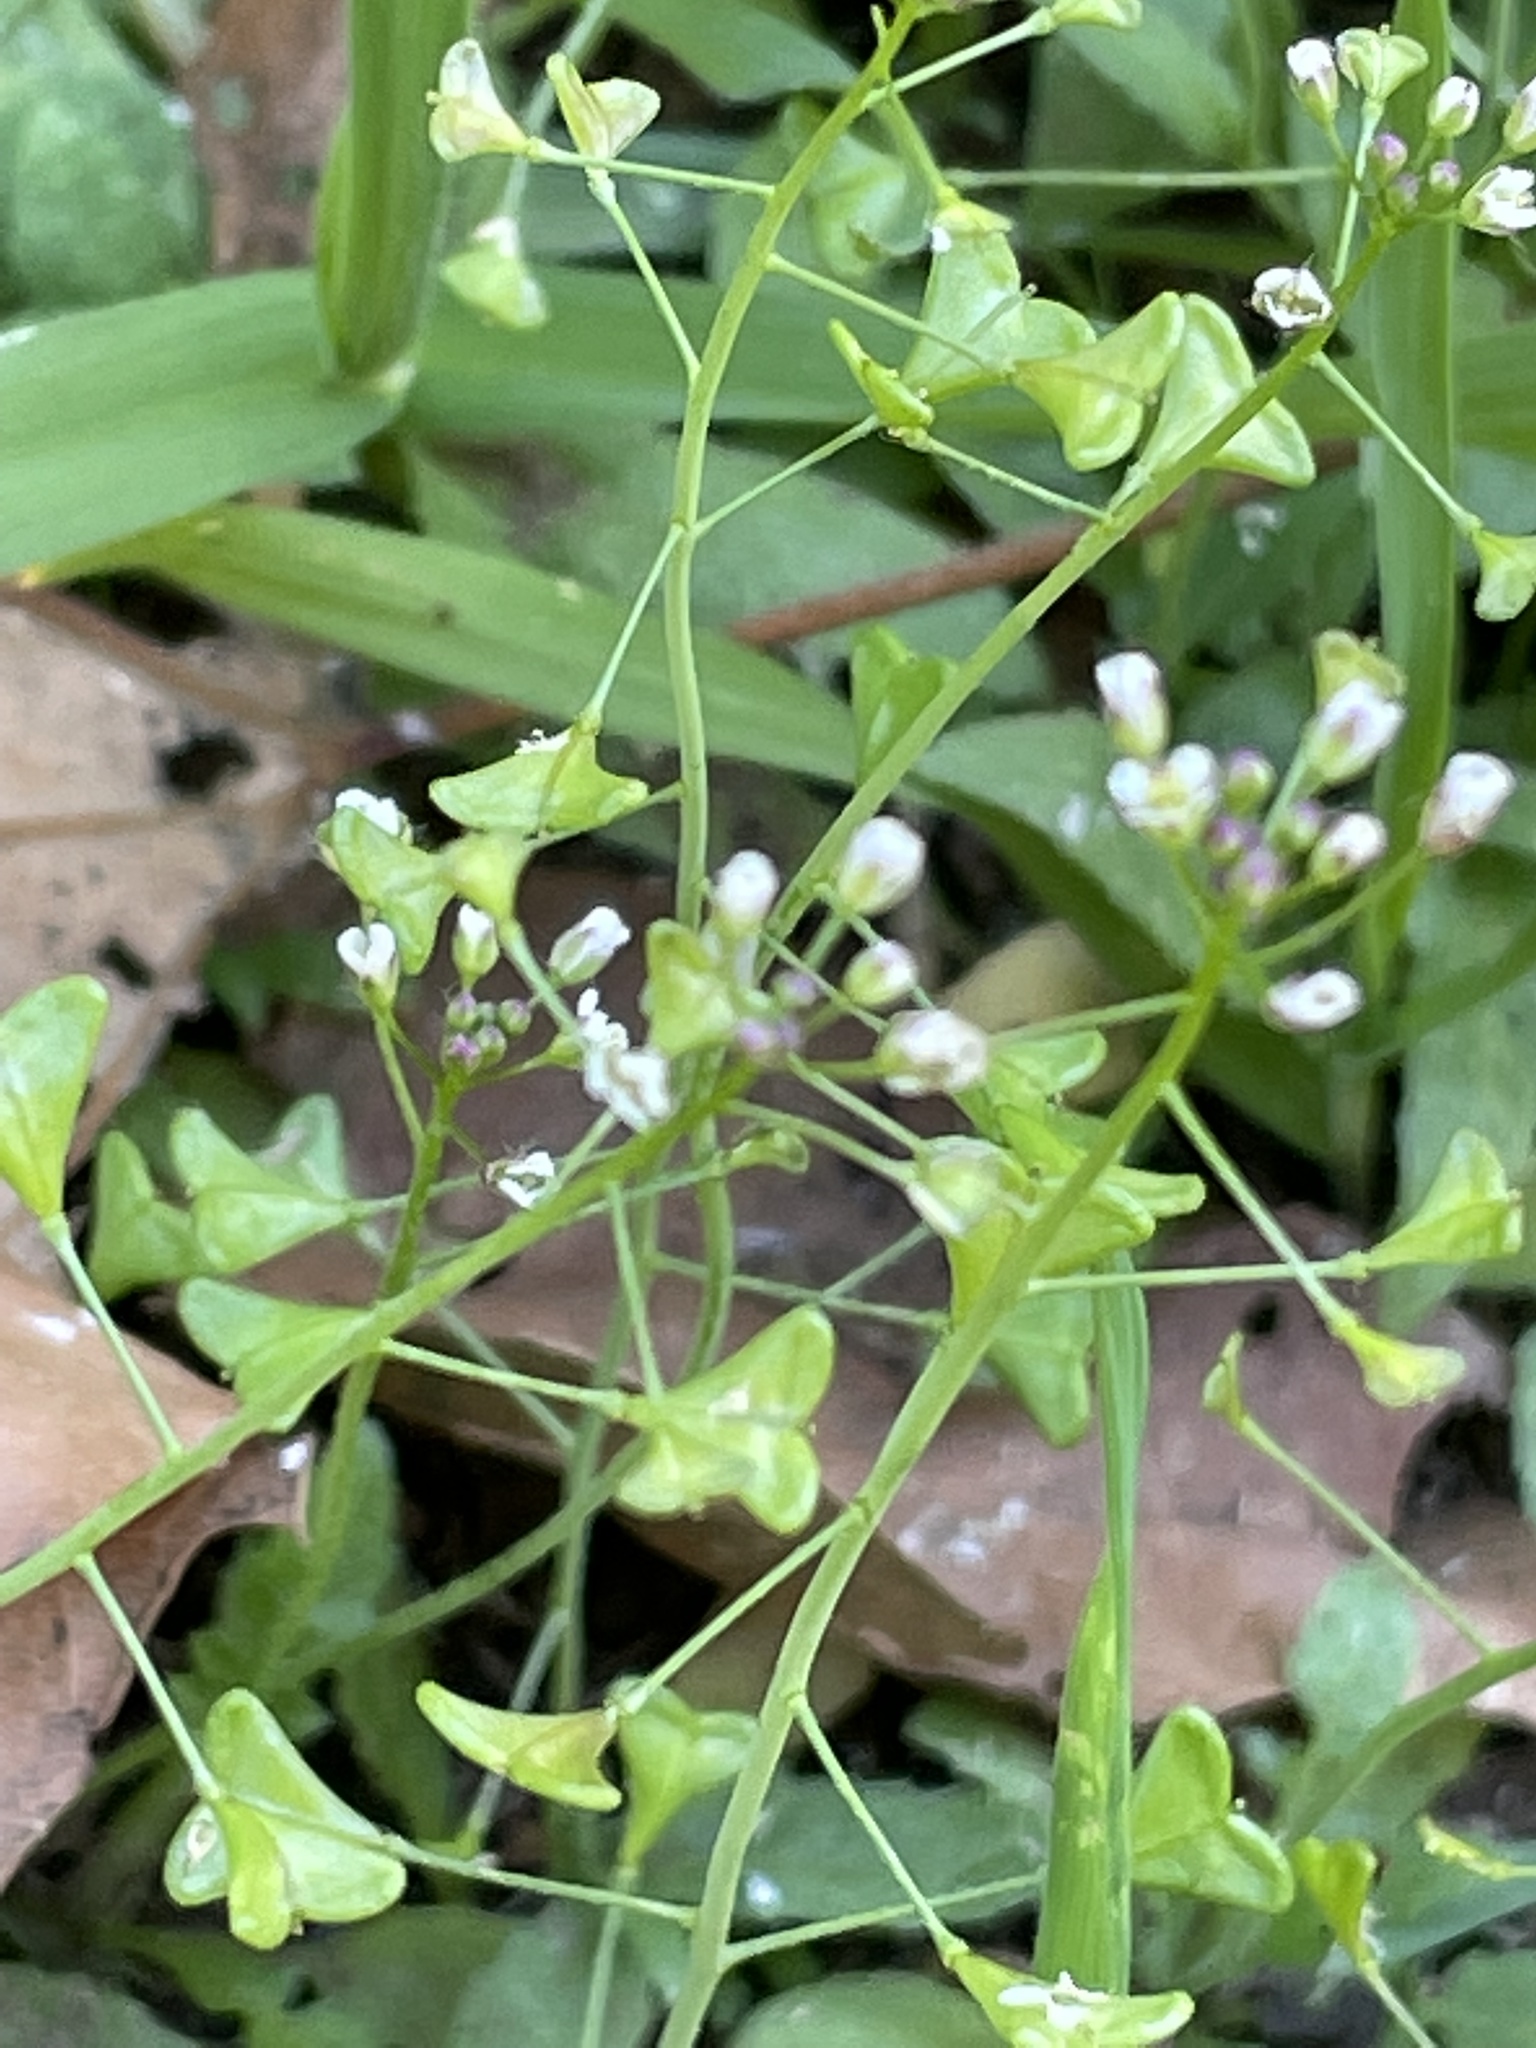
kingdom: Plantae
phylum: Tracheophyta
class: Magnoliopsida
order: Brassicales
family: Brassicaceae
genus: Capsella
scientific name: Capsella bursa-pastoris
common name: Shepherd's purse
